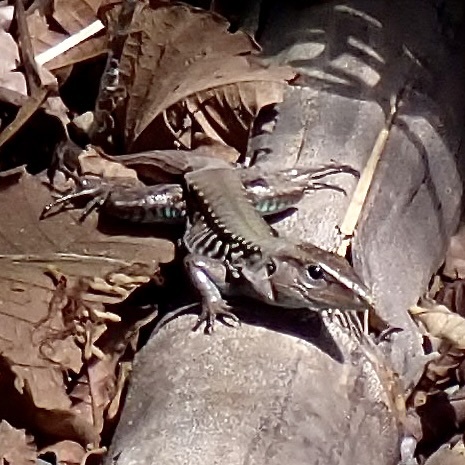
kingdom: Animalia
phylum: Chordata
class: Squamata
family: Teiidae
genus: Holcosus
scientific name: Holcosus festivus
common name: Middle american ameiva
